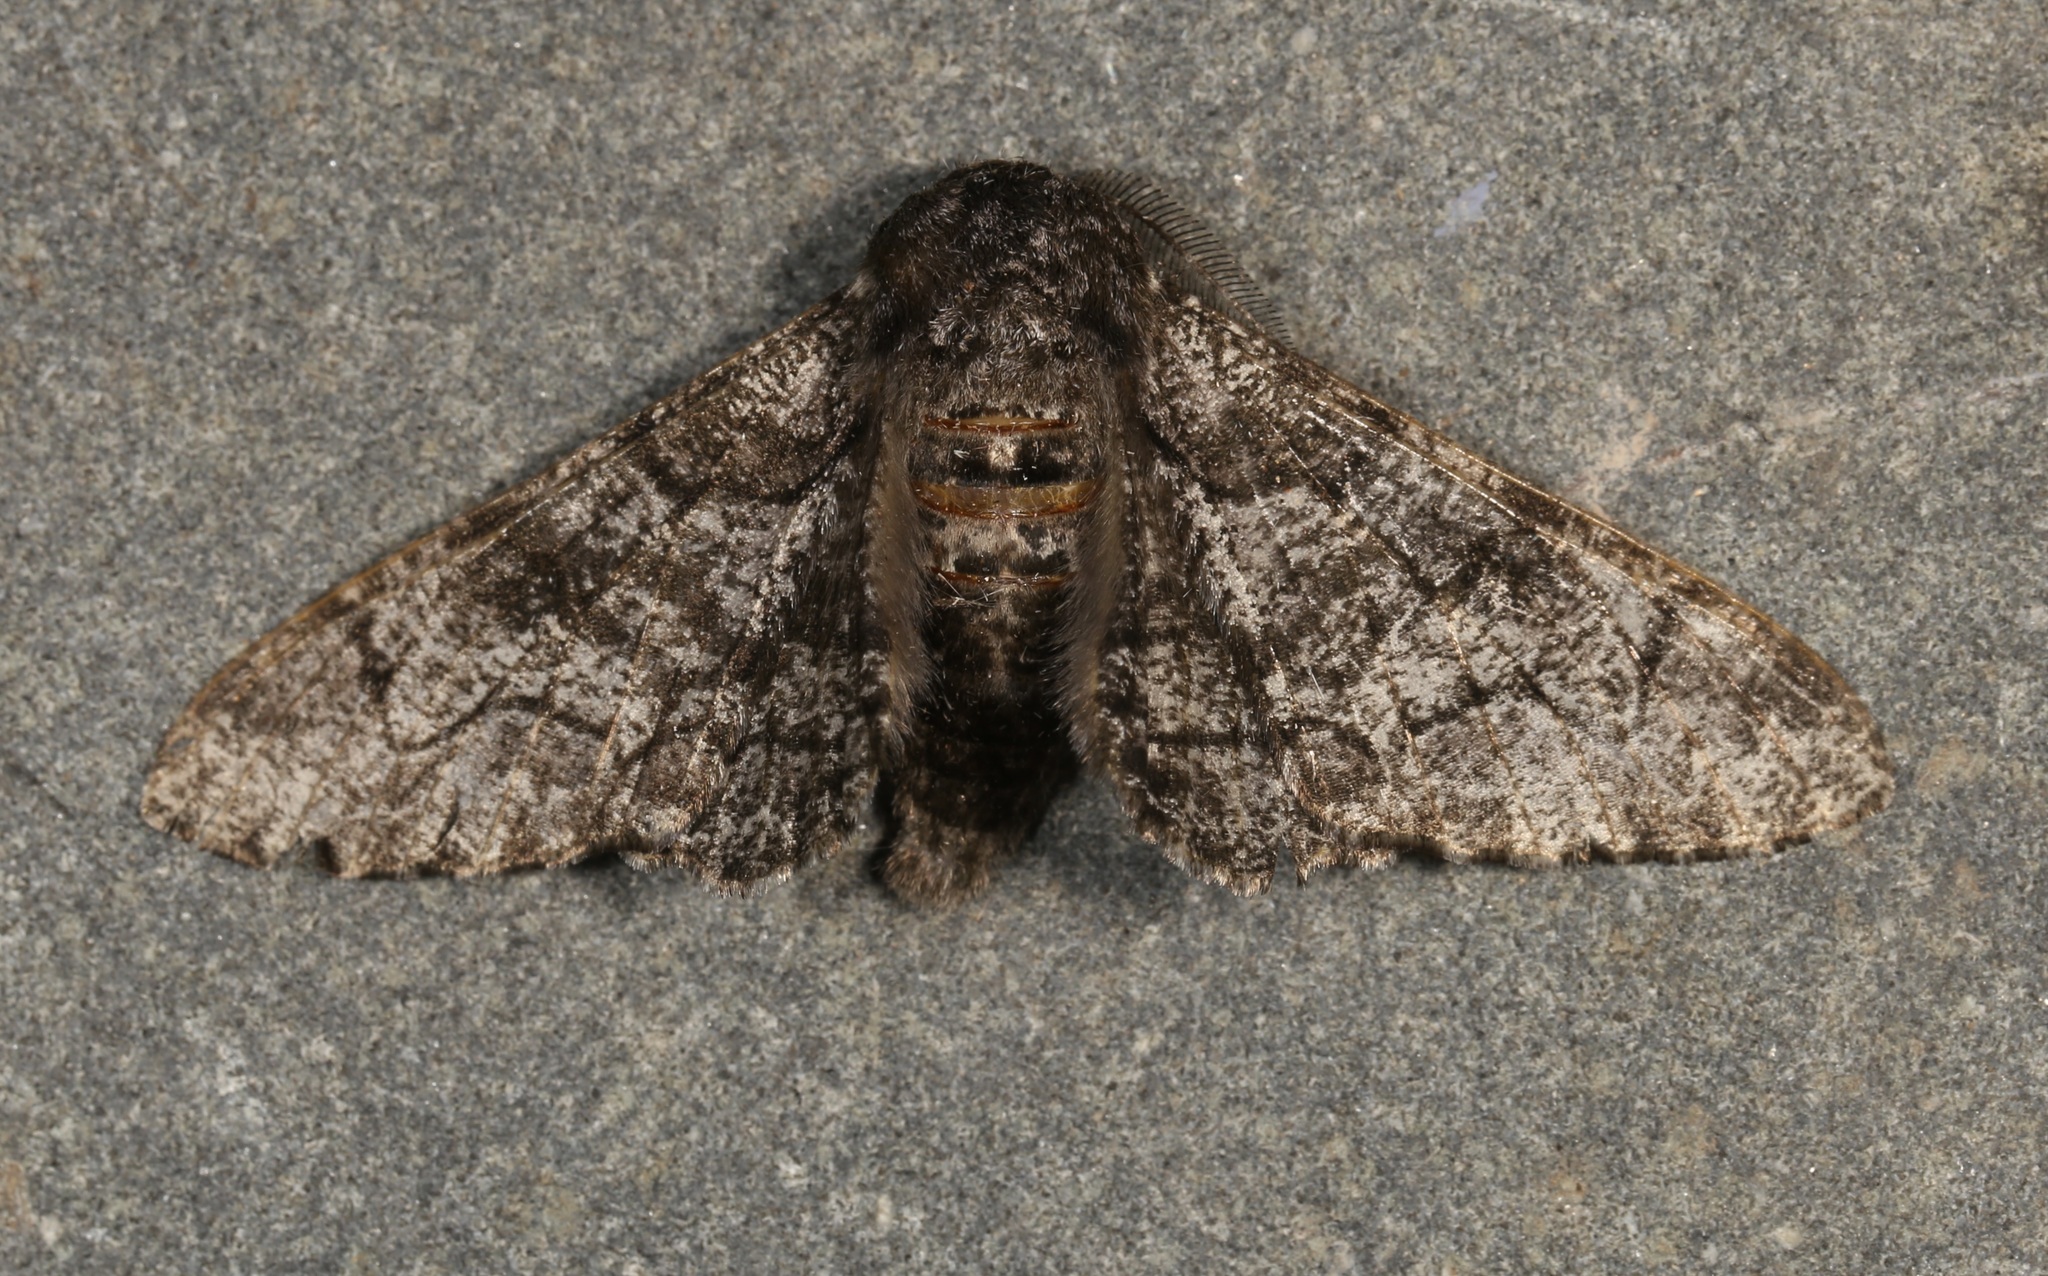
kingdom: Animalia
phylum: Arthropoda
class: Insecta
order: Lepidoptera
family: Geometridae
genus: Biston
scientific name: Biston betularia
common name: Peppered moth
